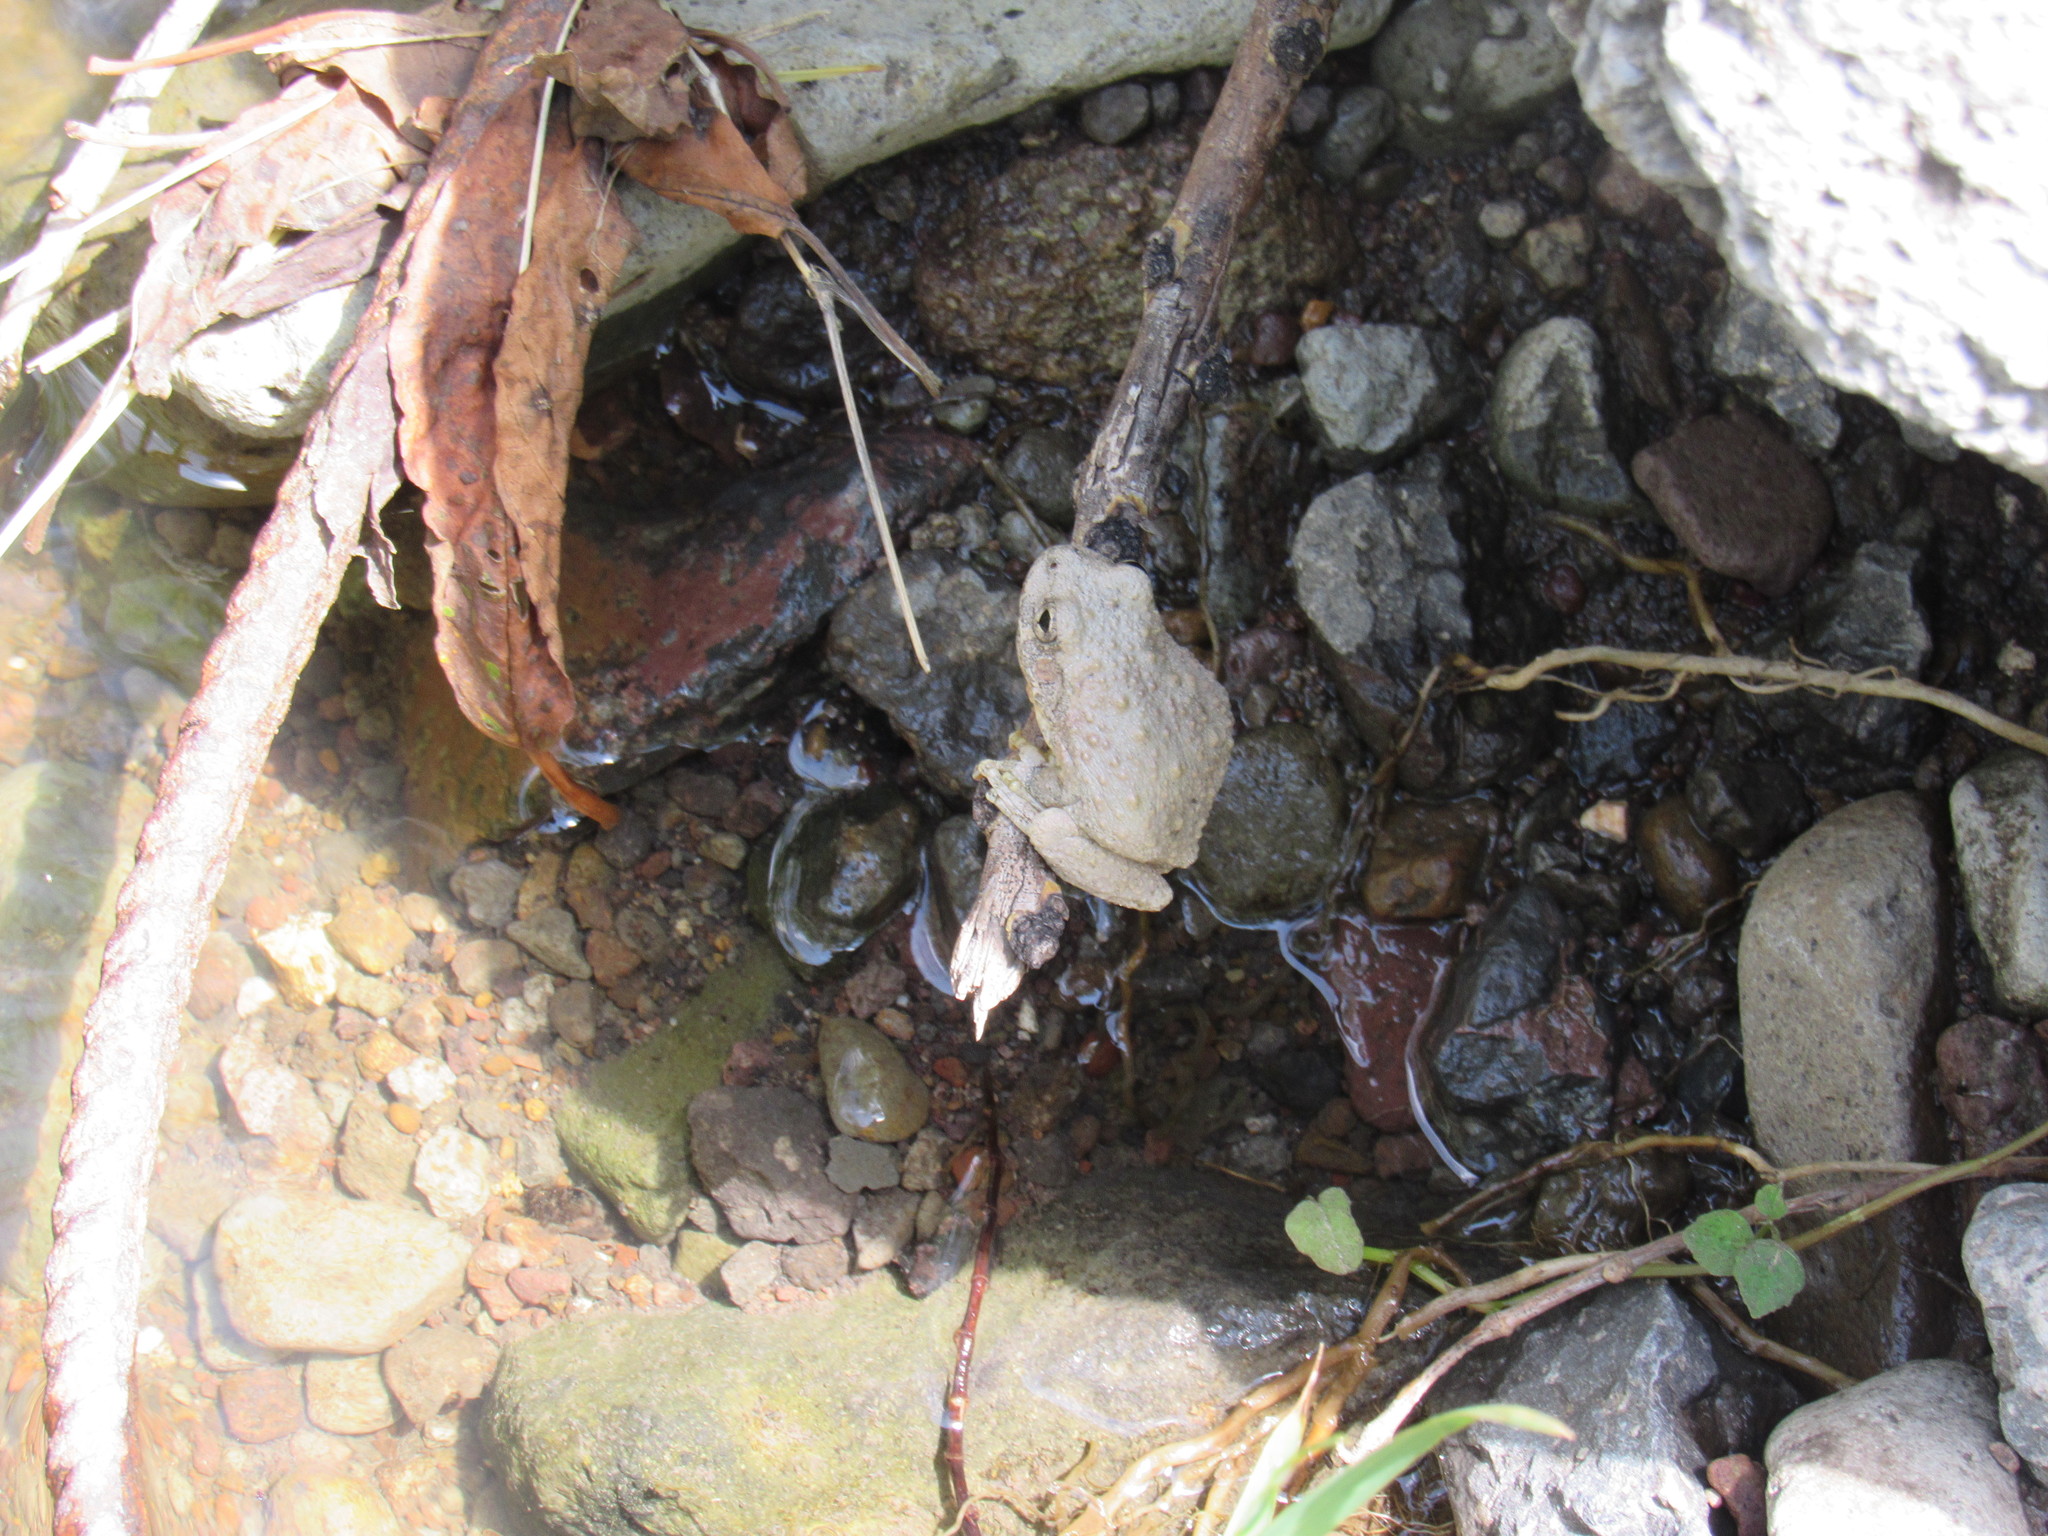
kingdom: Animalia
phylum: Chordata
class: Amphibia
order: Anura
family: Hylidae
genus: Dryophytes
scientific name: Dryophytes arenicolor
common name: Canyon treefrog
